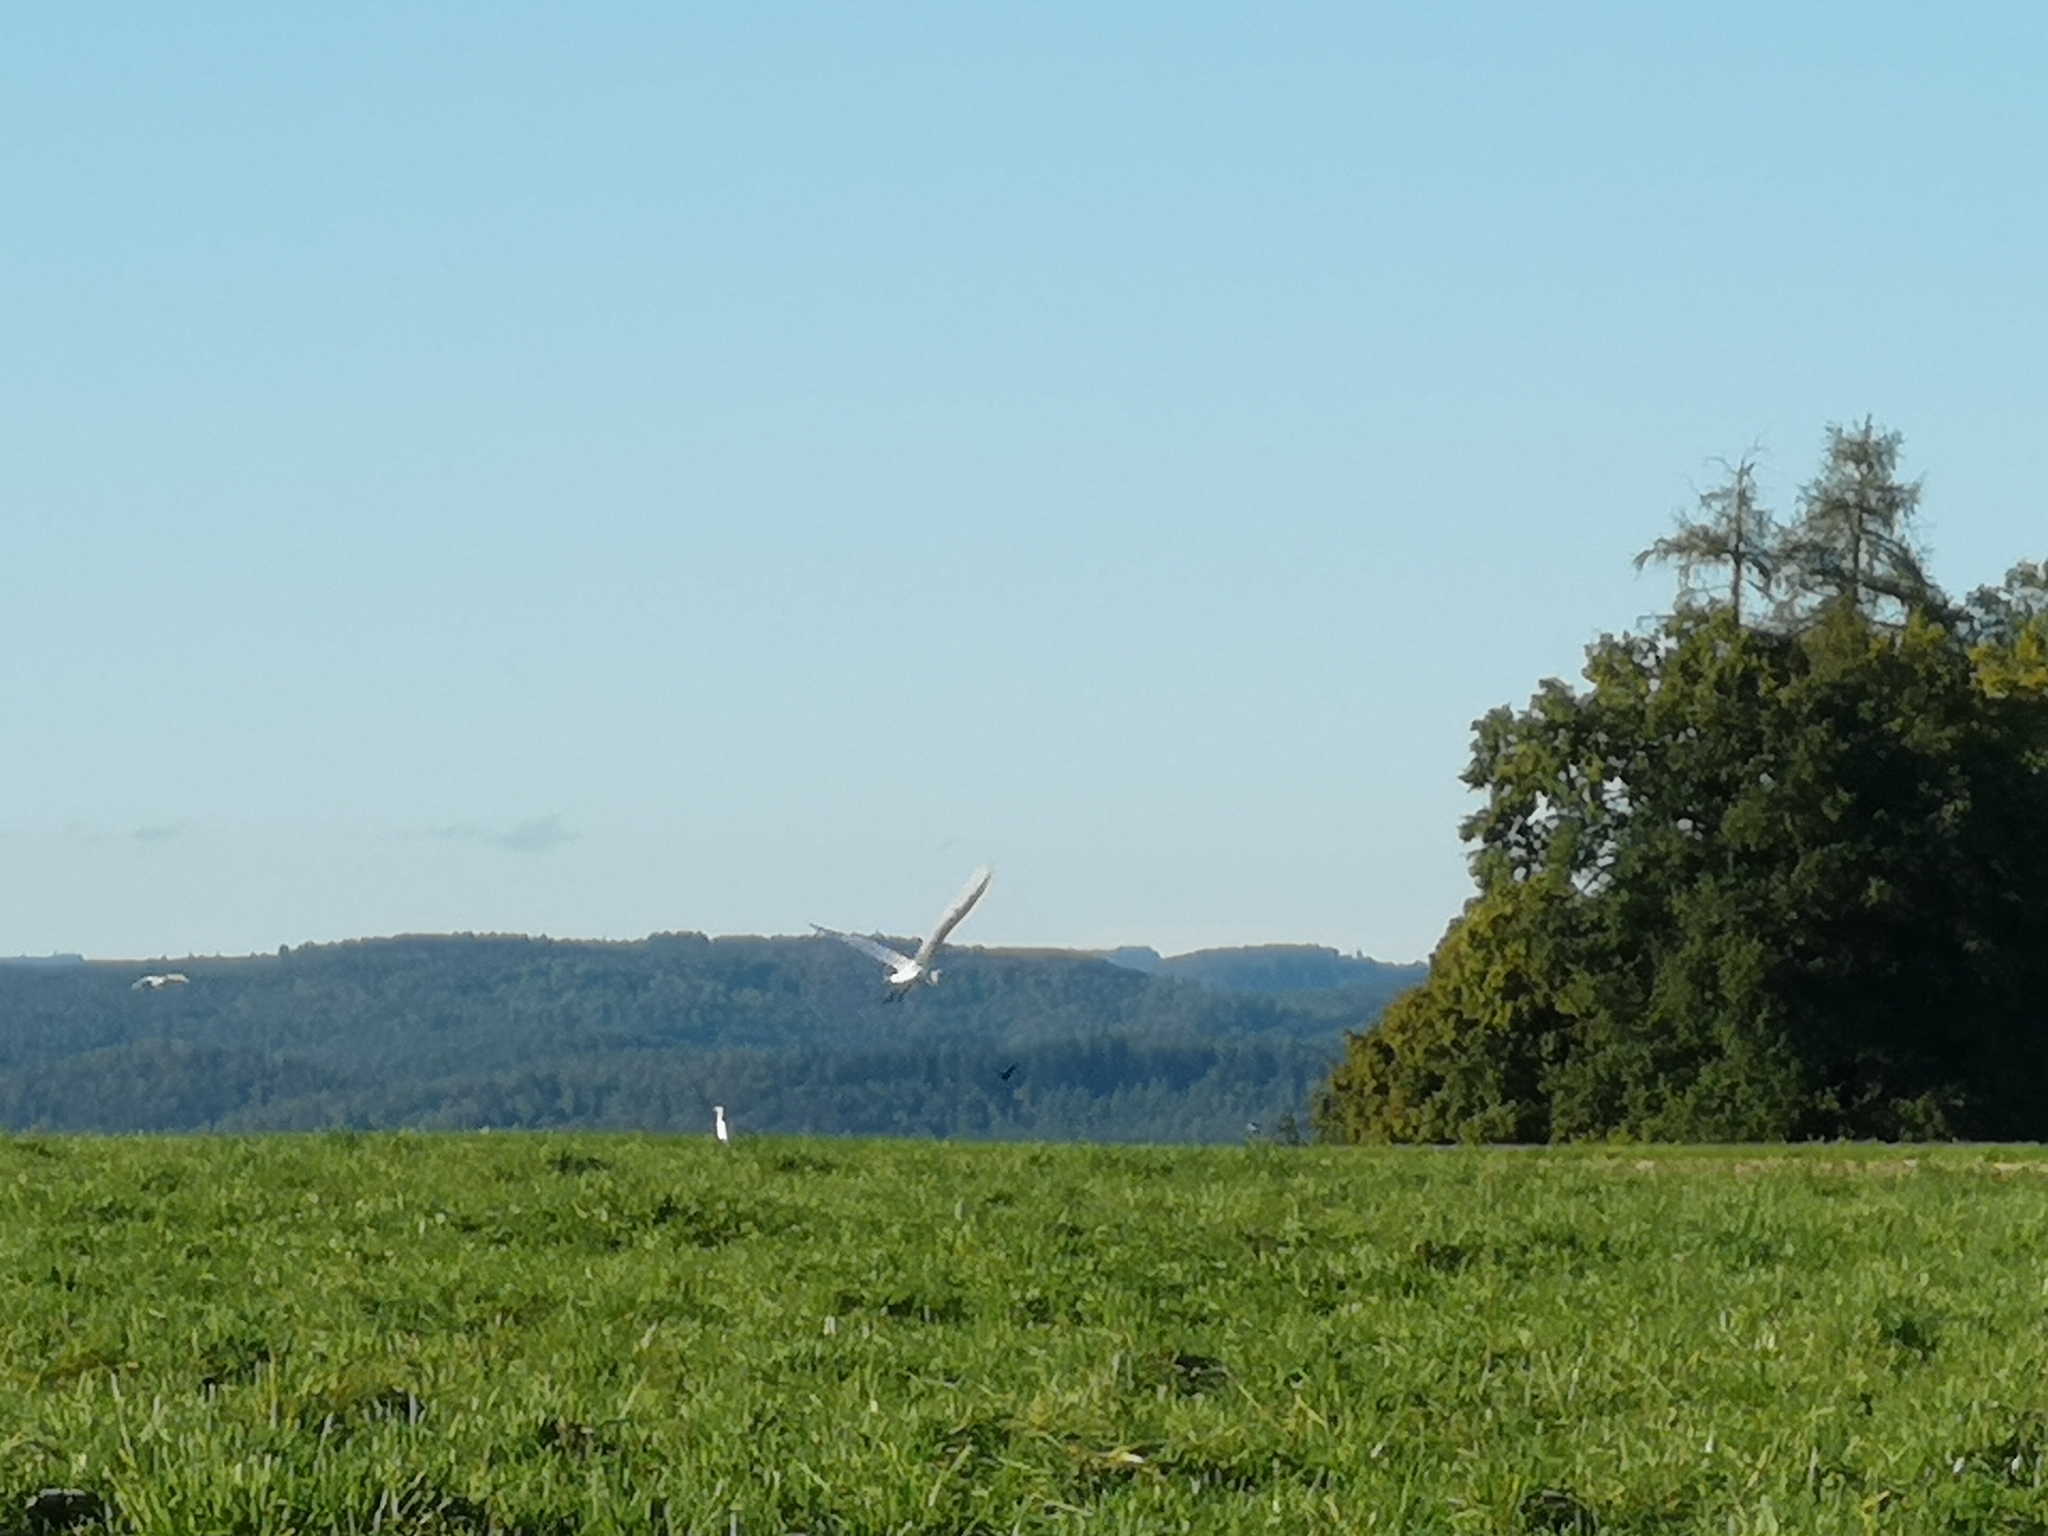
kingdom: Animalia
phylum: Chordata
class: Aves
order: Pelecaniformes
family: Ardeidae
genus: Ardea
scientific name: Ardea alba
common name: Great egret
